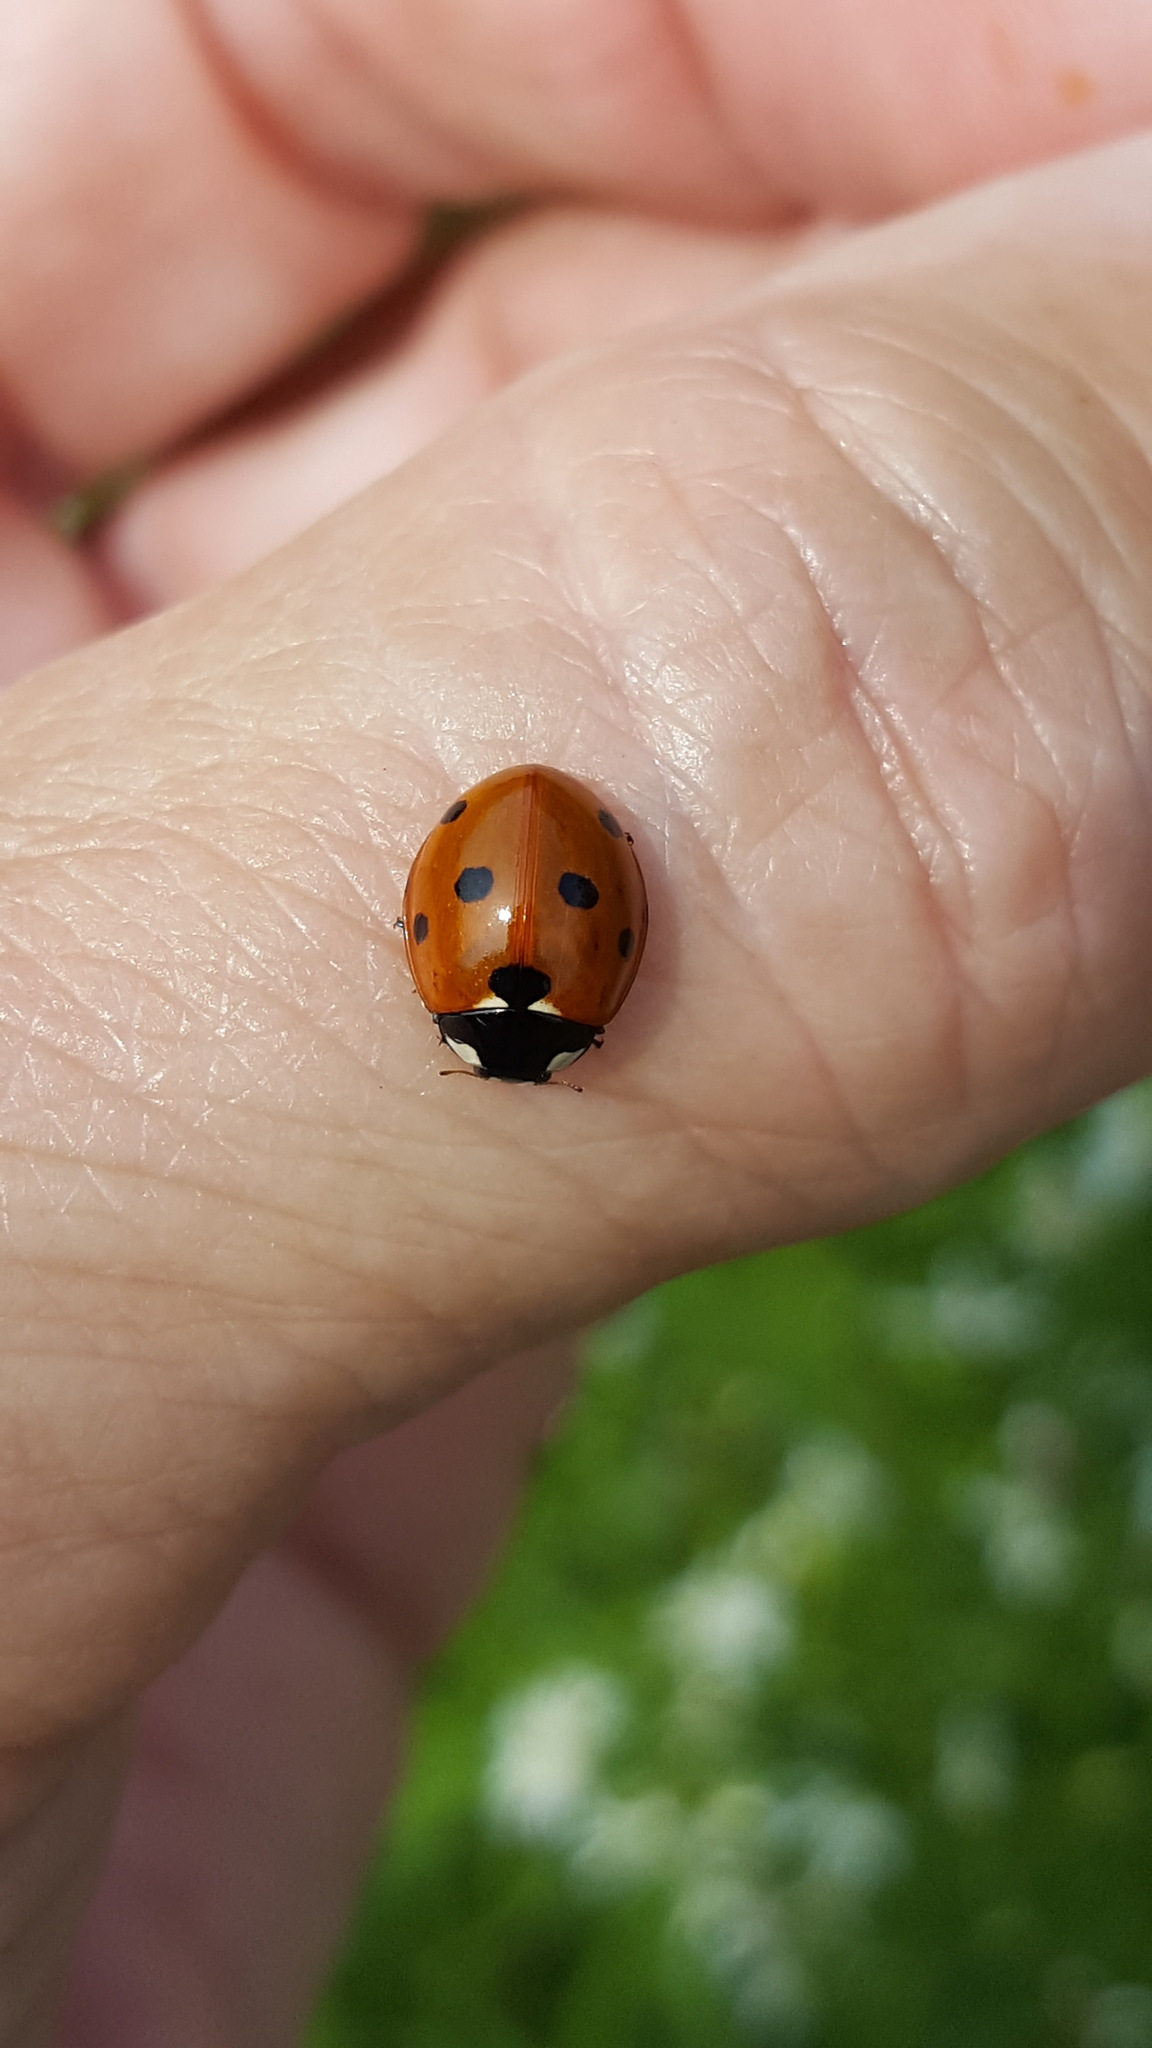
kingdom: Animalia
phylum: Arthropoda
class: Insecta
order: Coleoptera
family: Coccinellidae
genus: Coccinella
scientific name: Coccinella septempunctata
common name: Sevenspotted lady beetle
